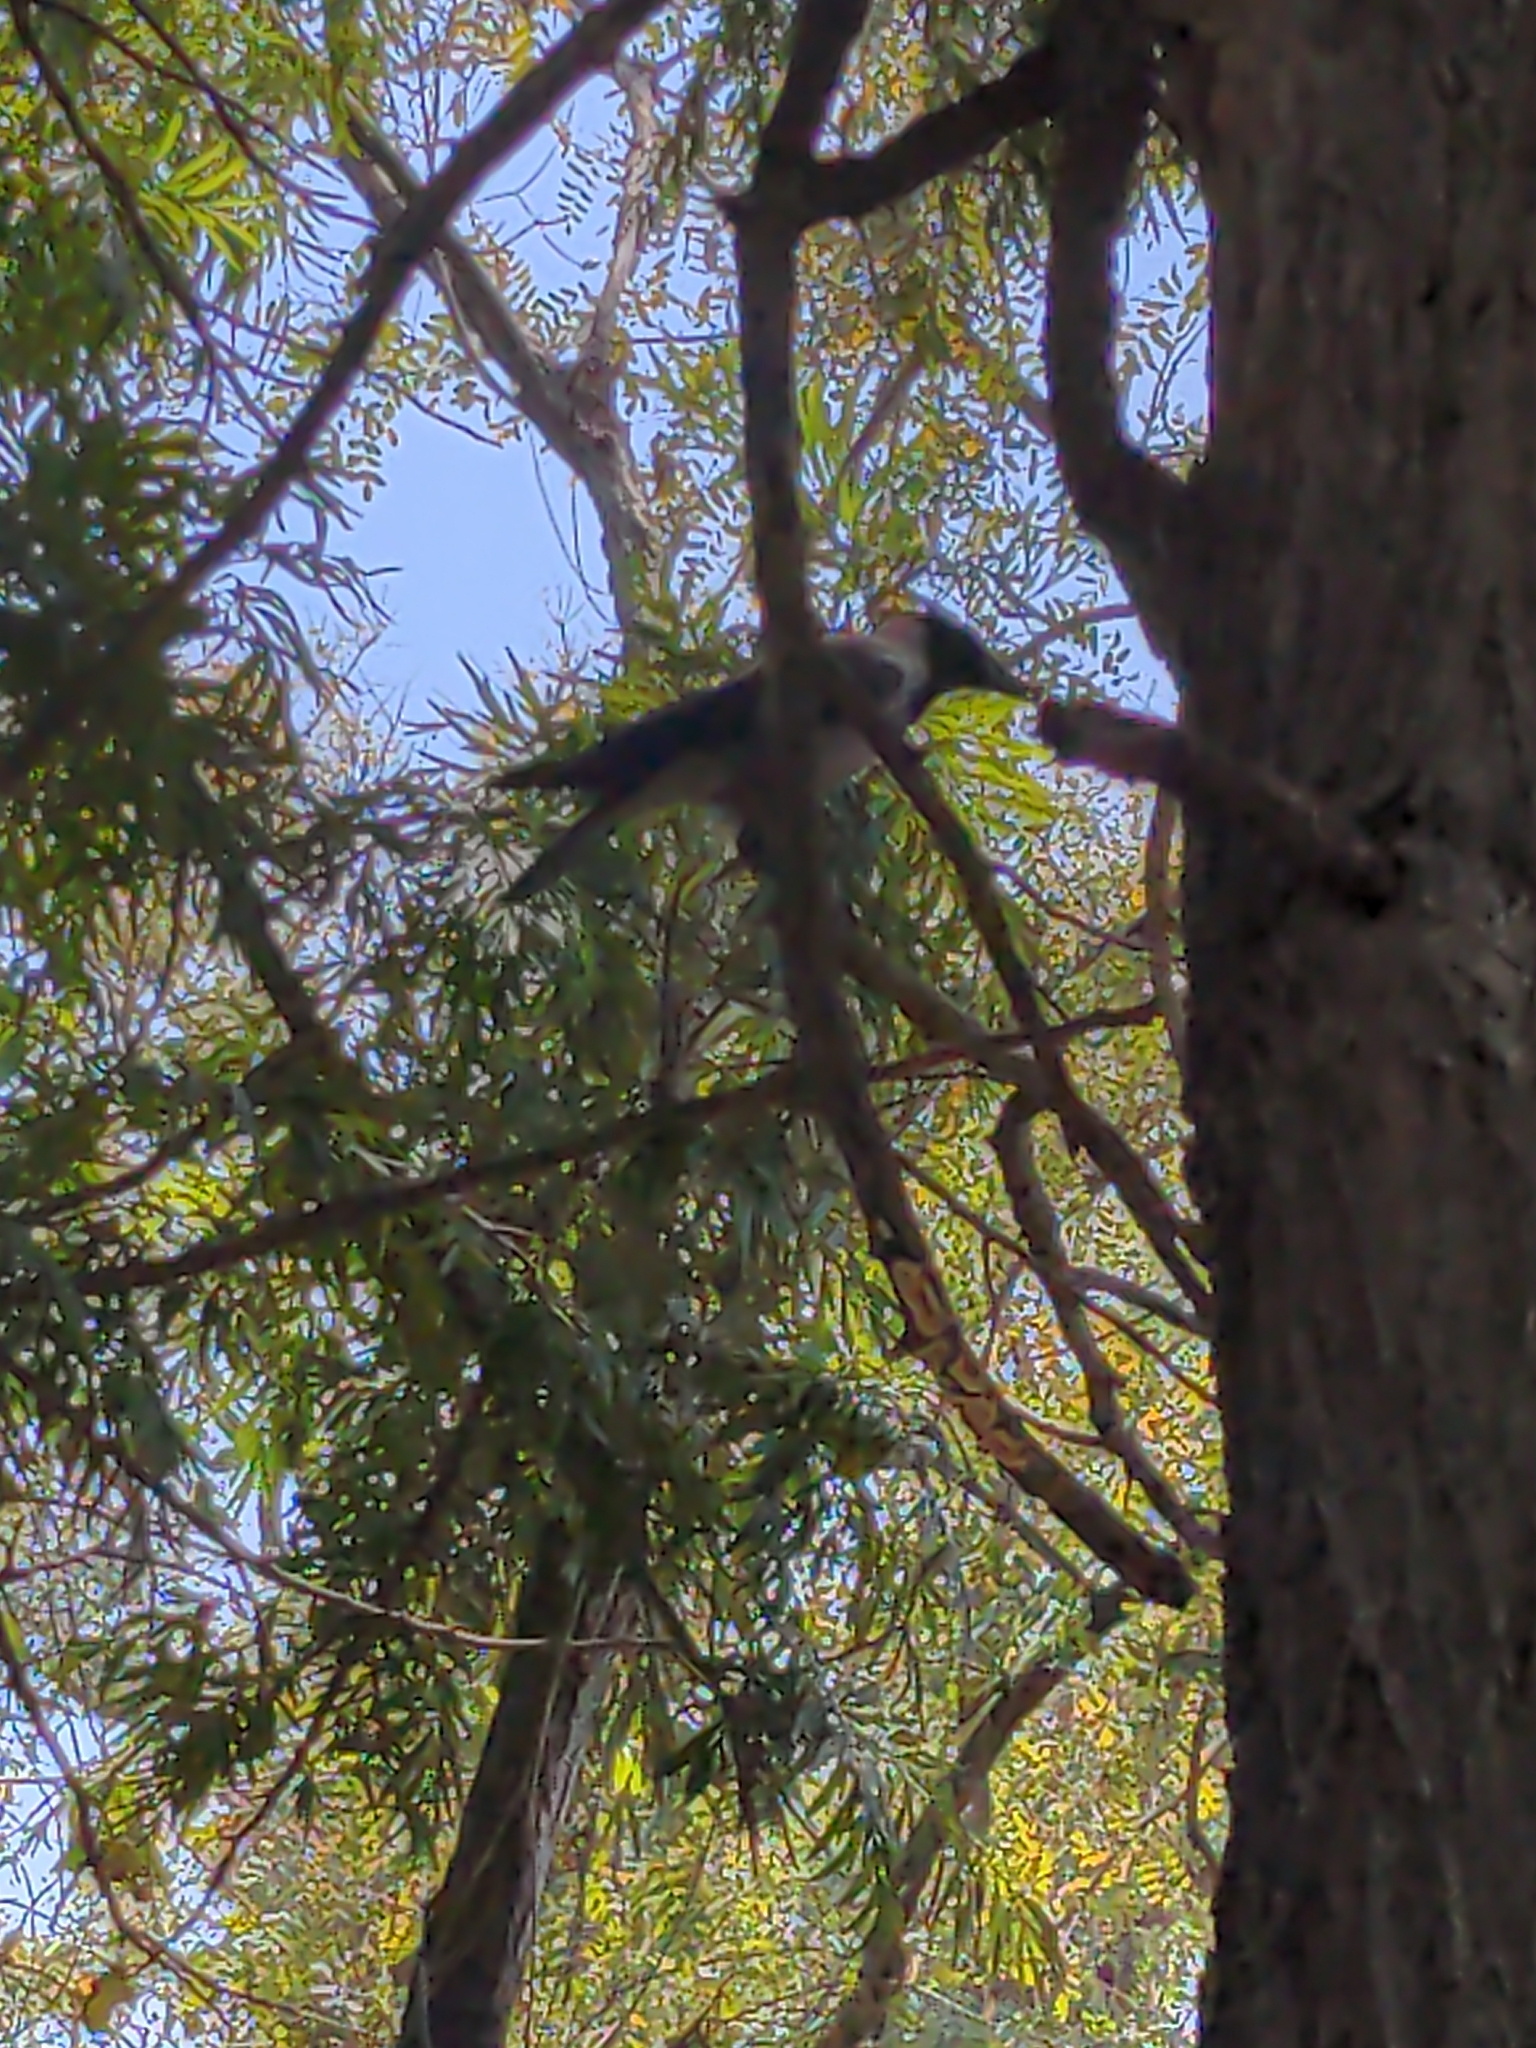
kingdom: Animalia
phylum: Chordata
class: Aves
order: Passeriformes
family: Corvidae
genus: Corvus
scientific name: Corvus cornix
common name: Hooded crow
